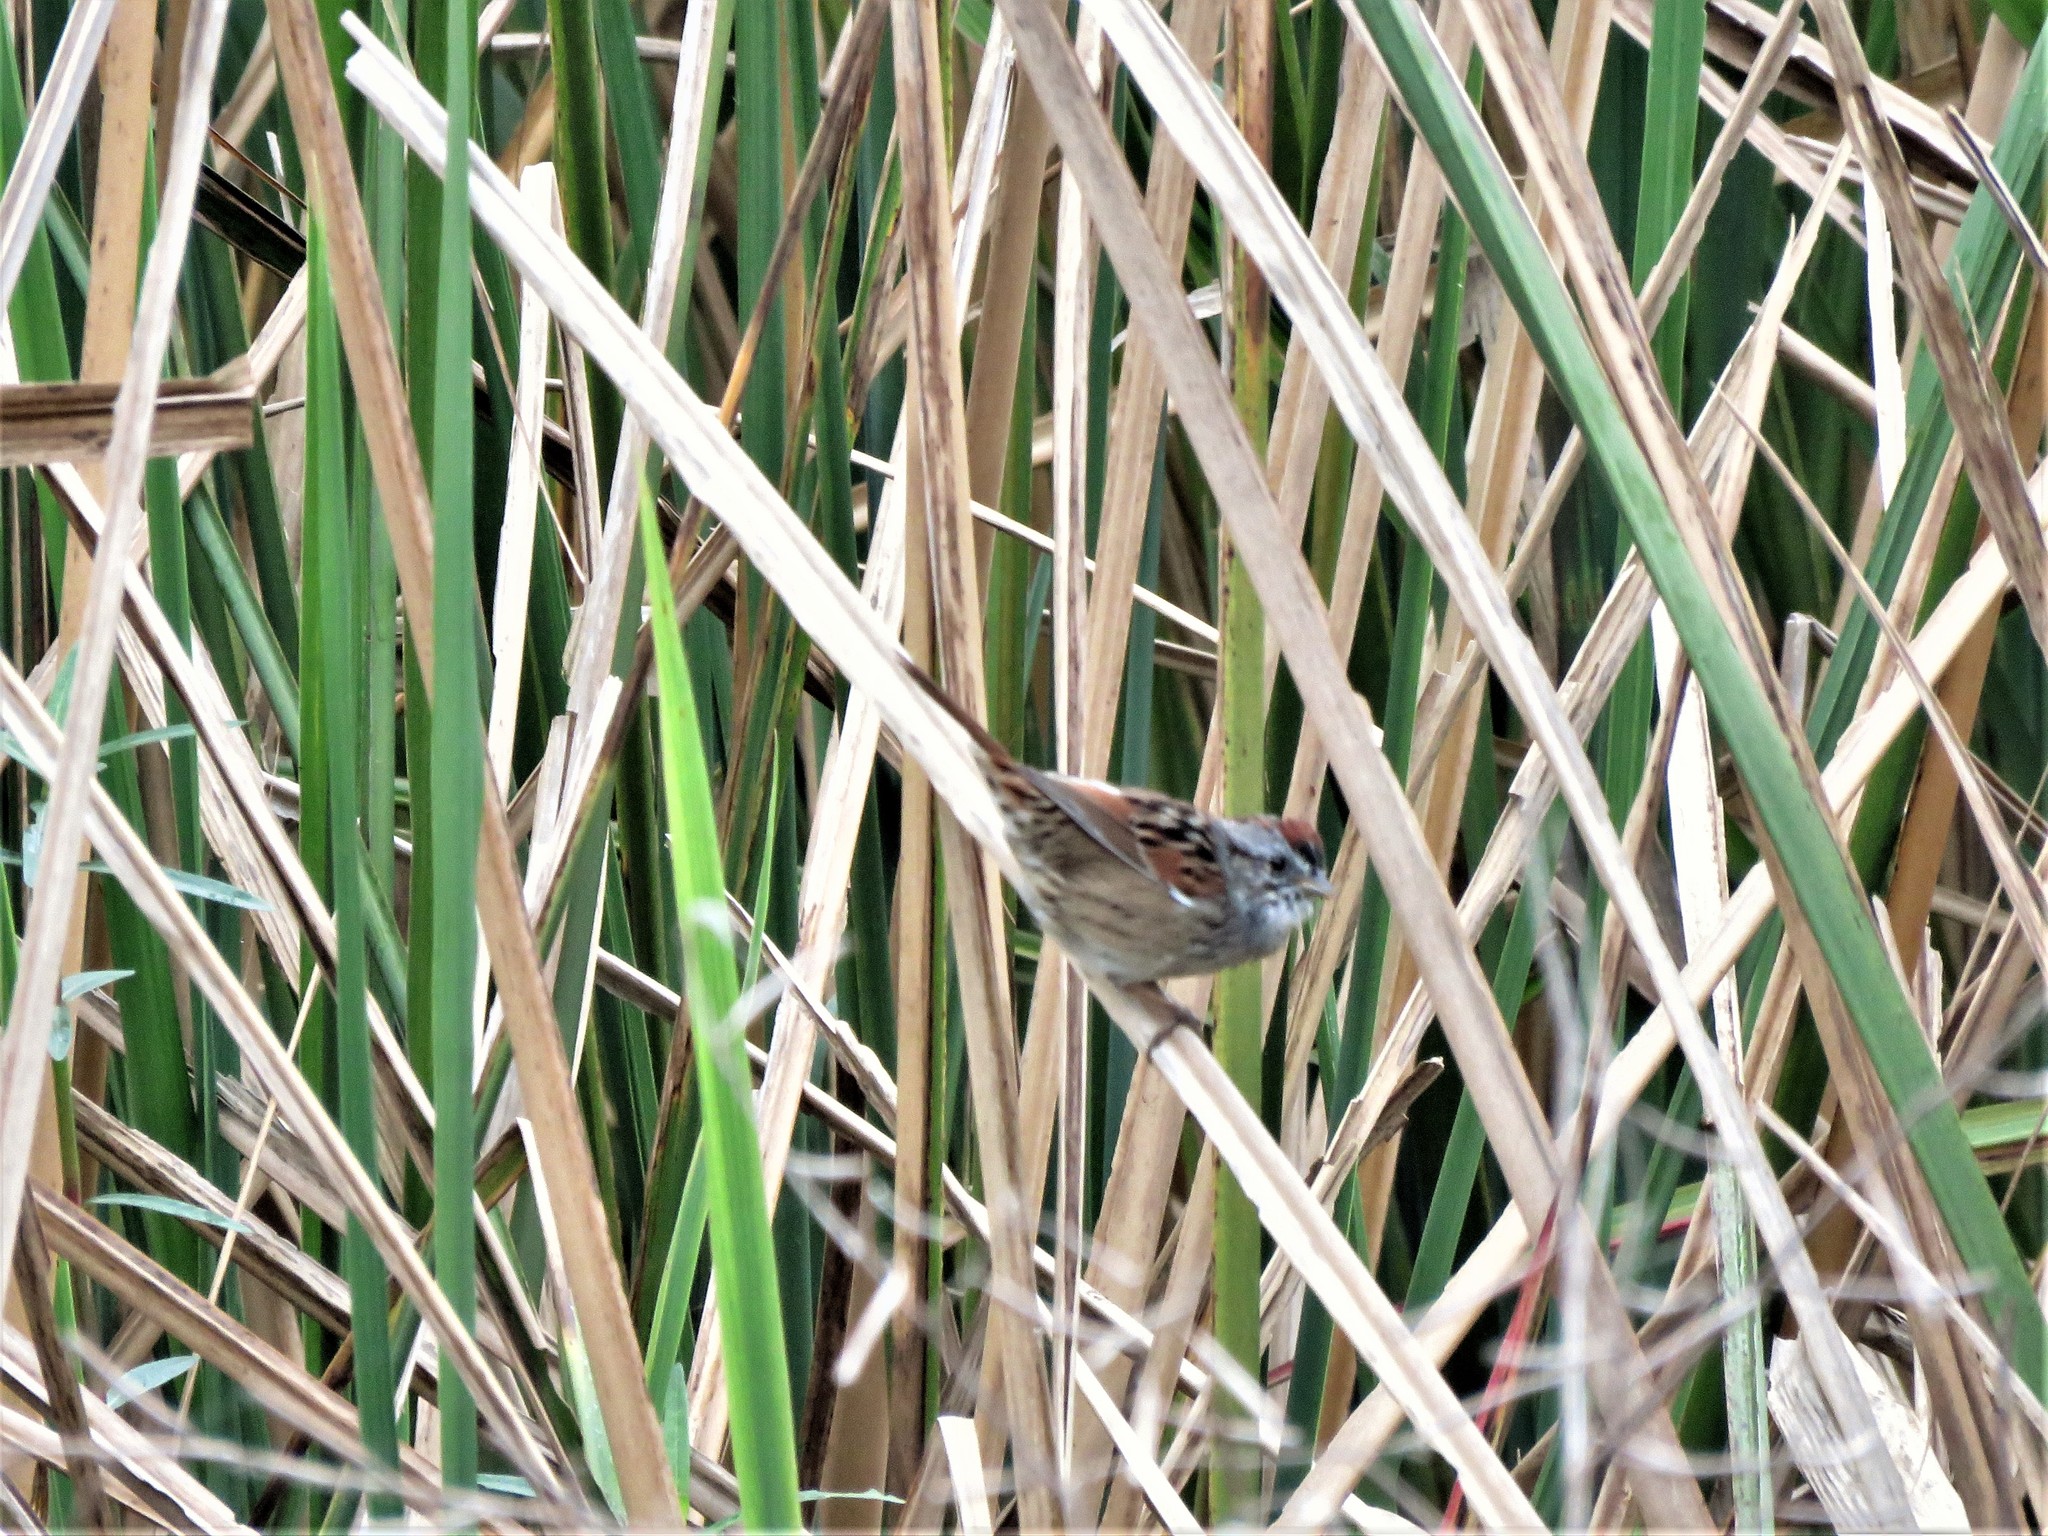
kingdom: Animalia
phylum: Chordata
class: Aves
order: Passeriformes
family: Passerellidae
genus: Melospiza
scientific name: Melospiza georgiana
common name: Swamp sparrow
